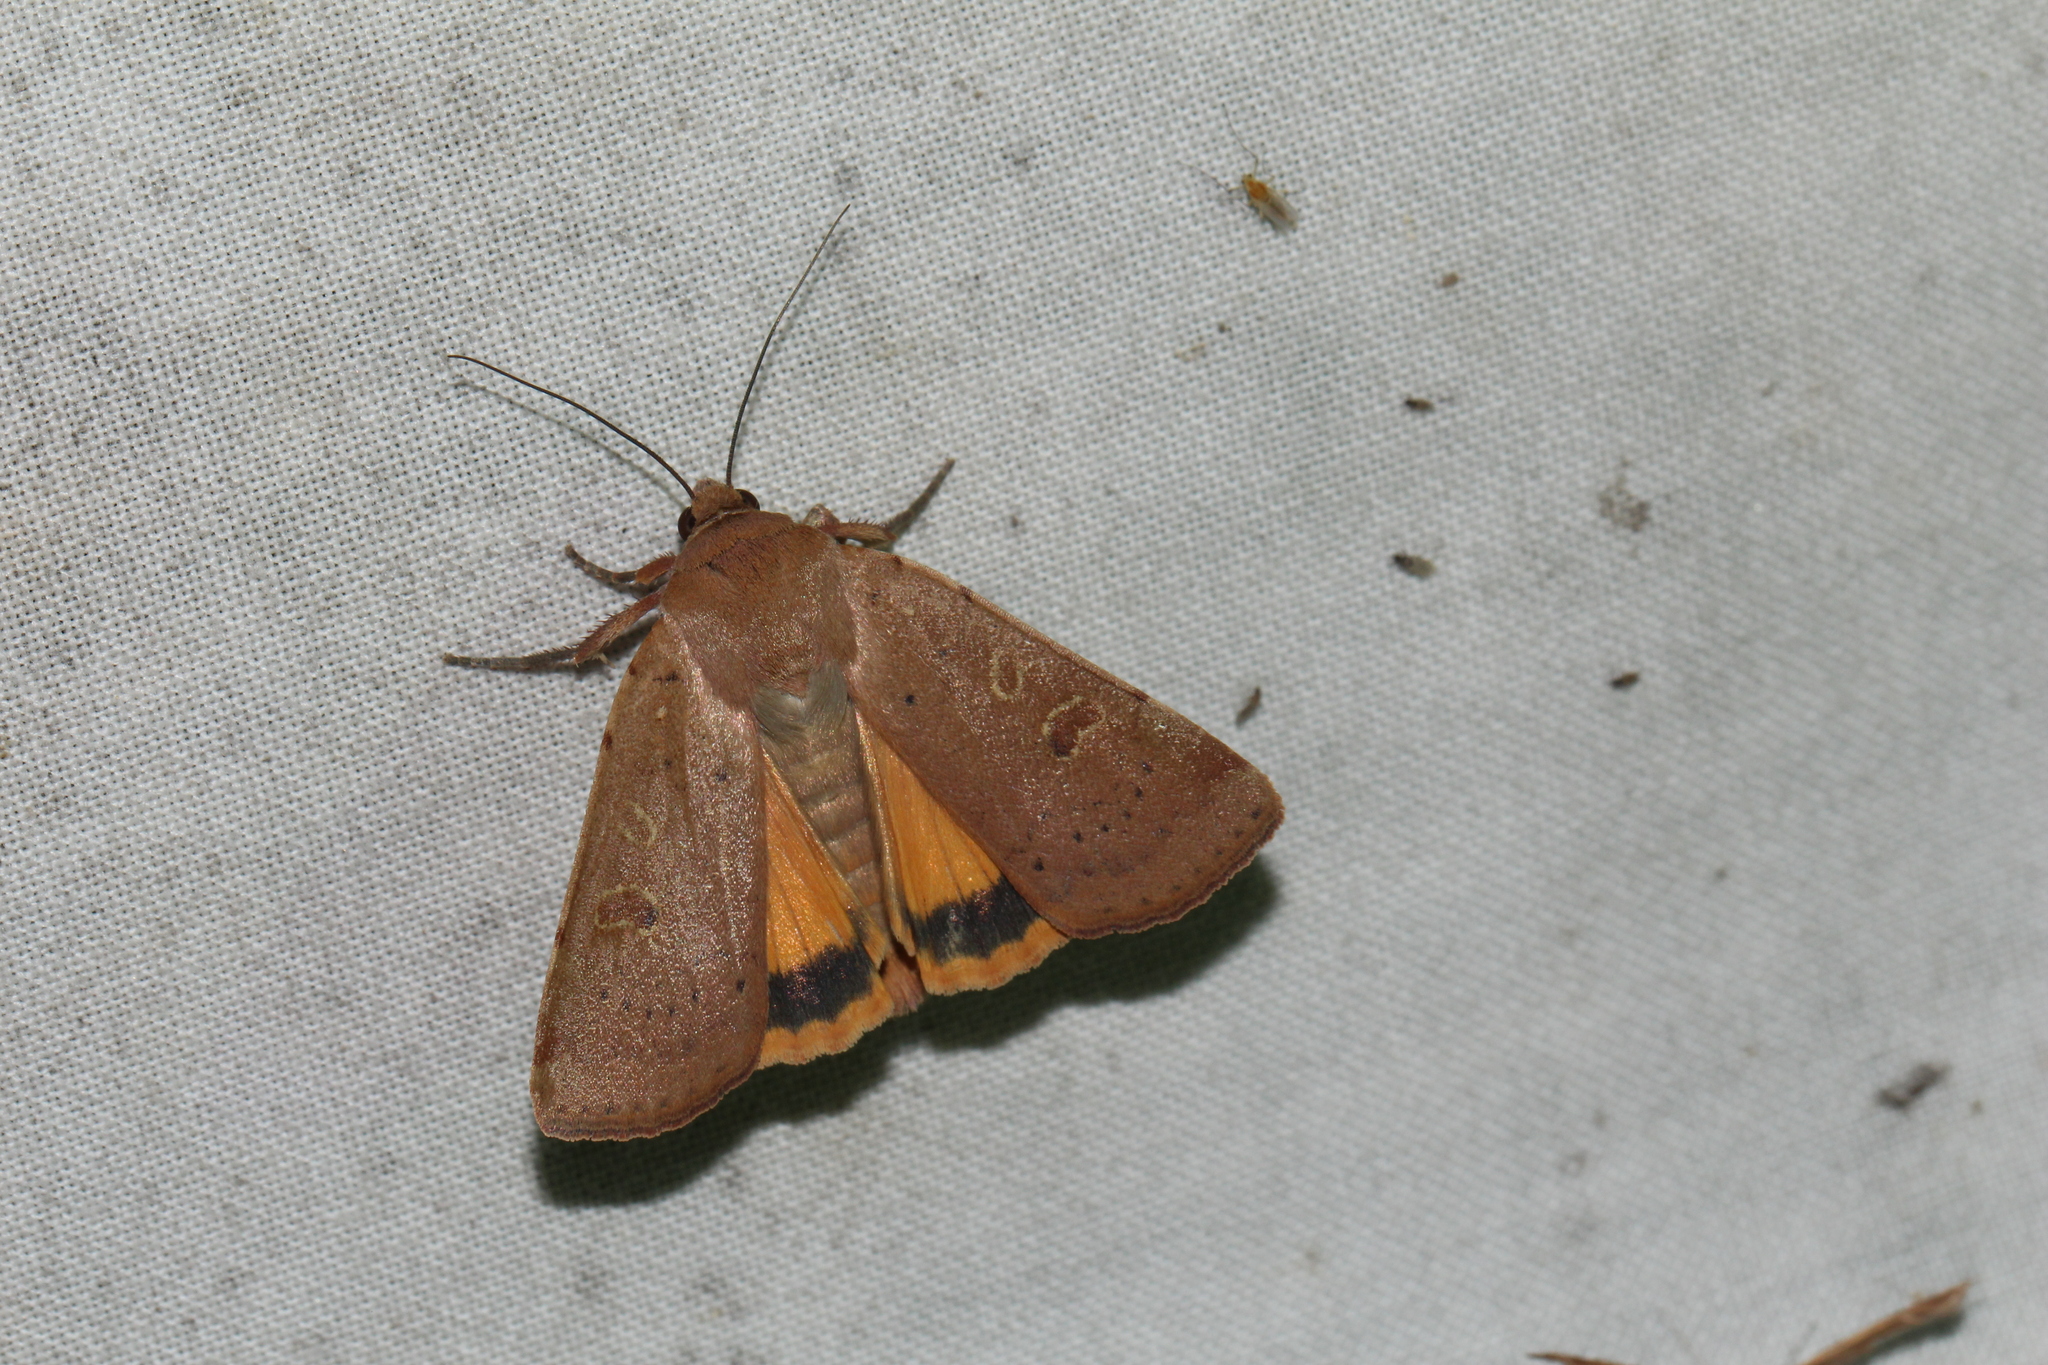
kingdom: Animalia
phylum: Arthropoda
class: Insecta
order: Lepidoptera
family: Noctuidae
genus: Noctua
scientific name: Noctua comes
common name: Lesser yellow underwing
